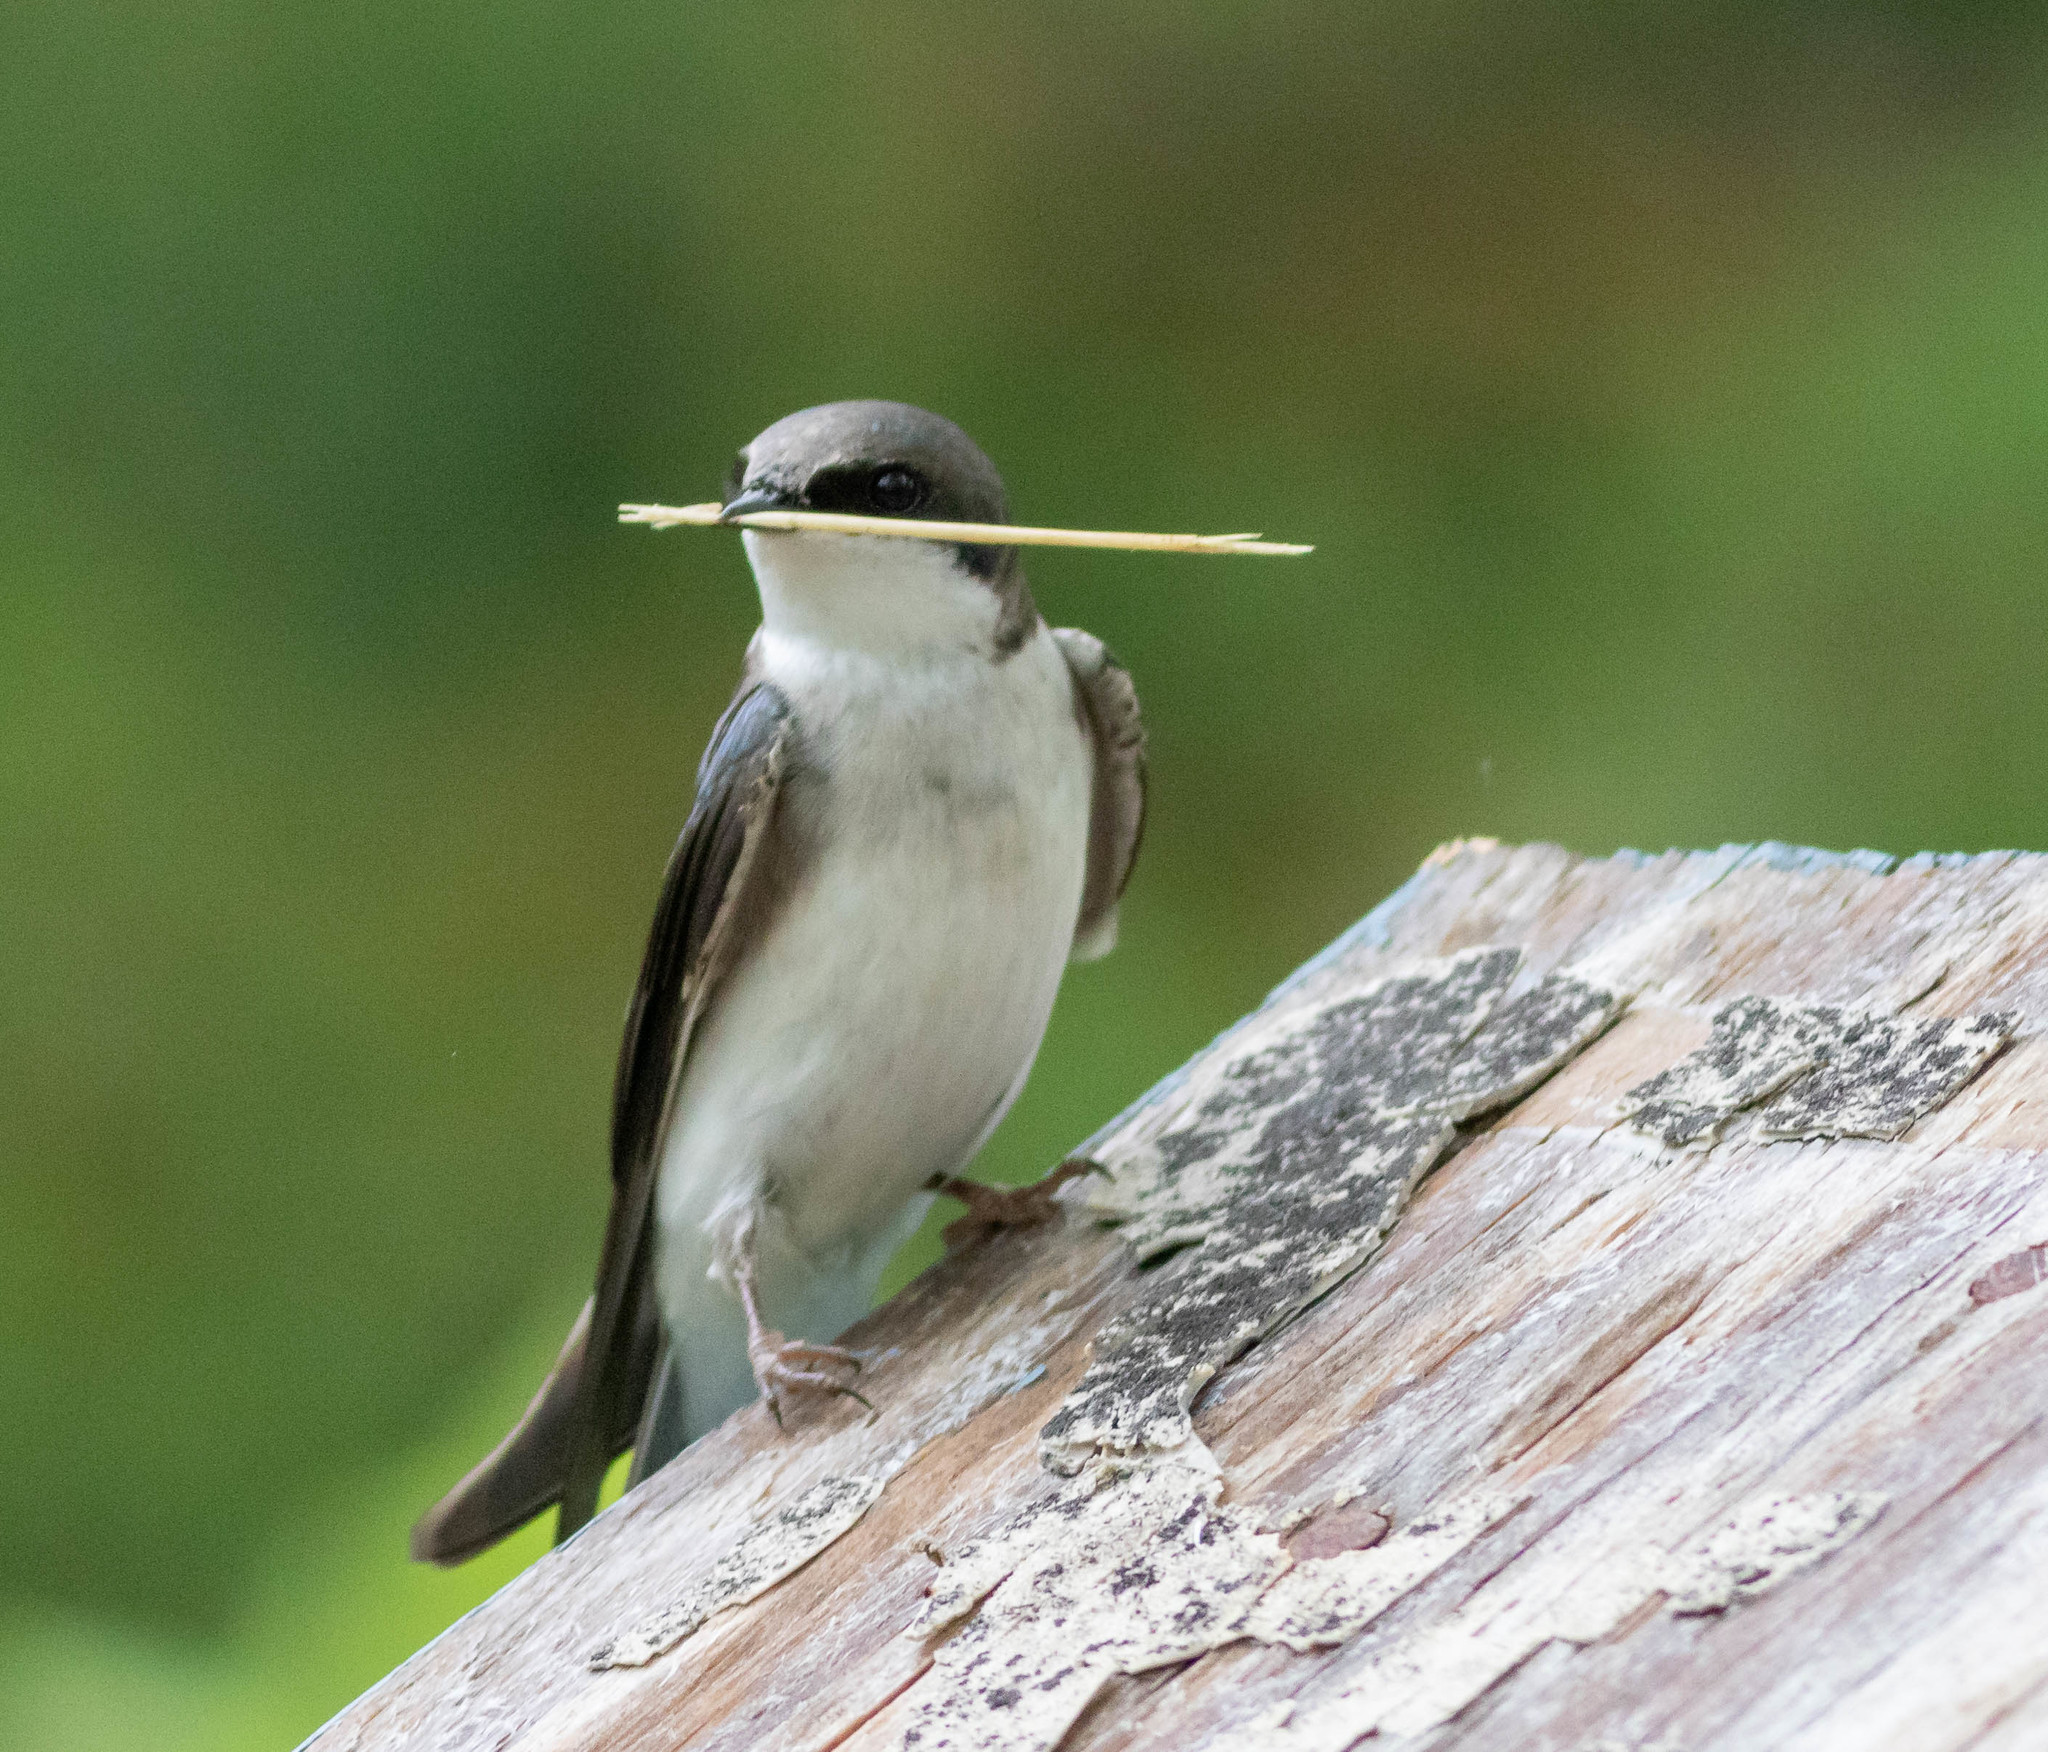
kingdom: Animalia
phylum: Chordata
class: Aves
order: Passeriformes
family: Hirundinidae
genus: Tachycineta
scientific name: Tachycineta bicolor
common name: Tree swallow
